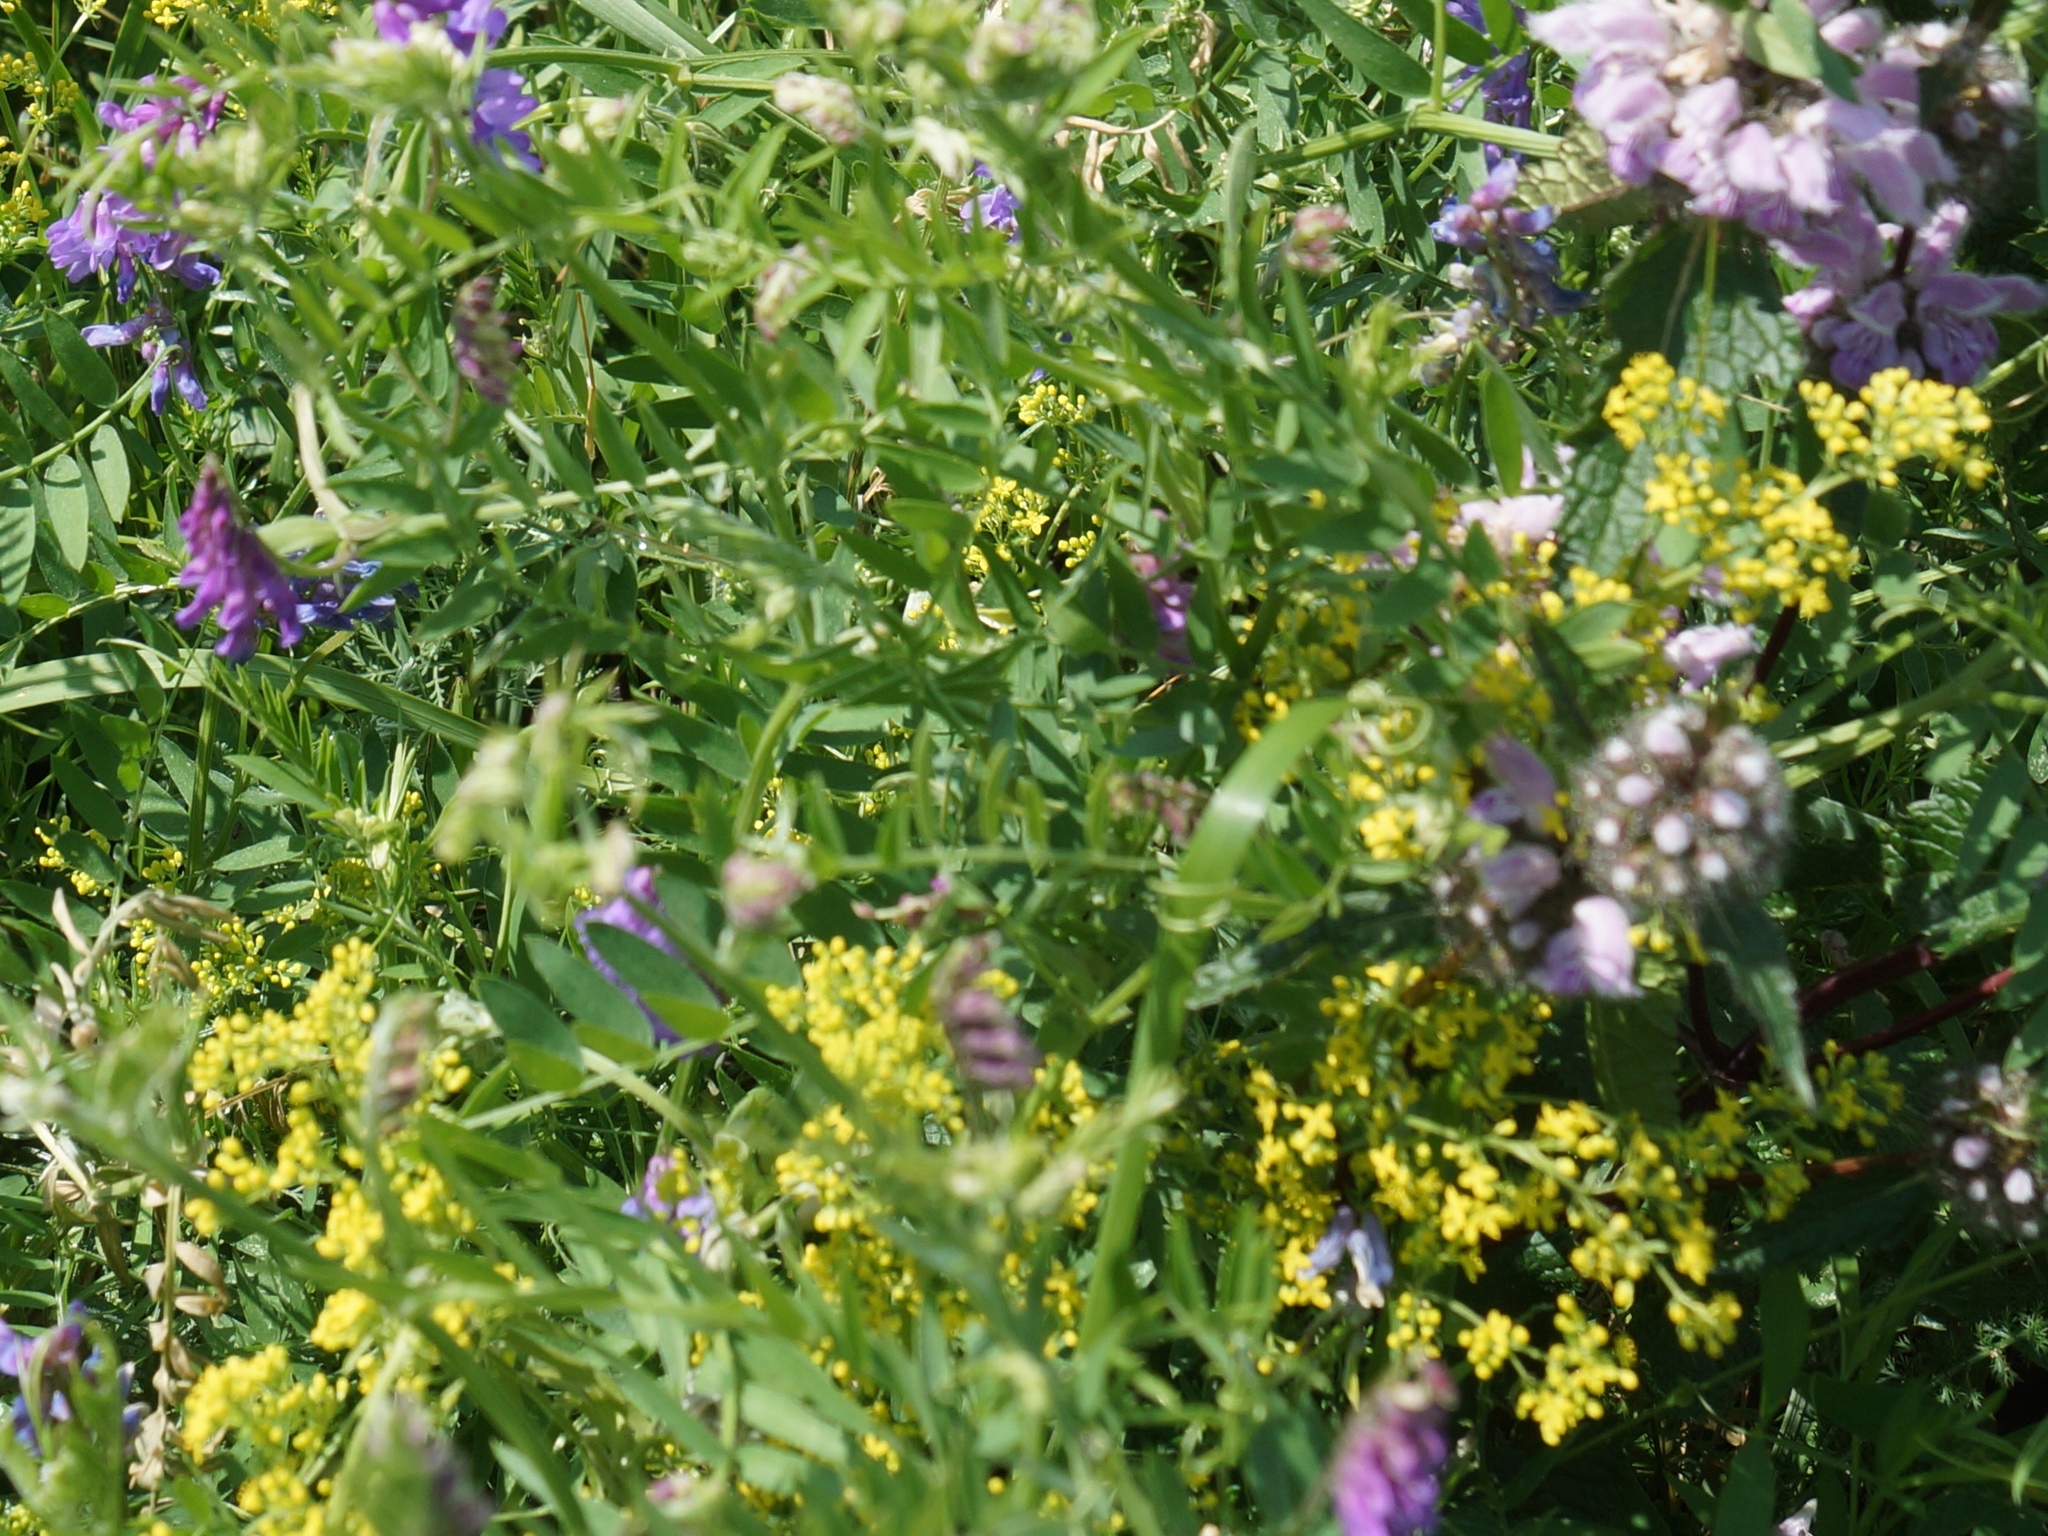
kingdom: Plantae
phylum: Tracheophyta
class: Magnoliopsida
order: Fabales
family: Fabaceae
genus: Vicia
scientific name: Vicia cracca
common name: Bird vetch
